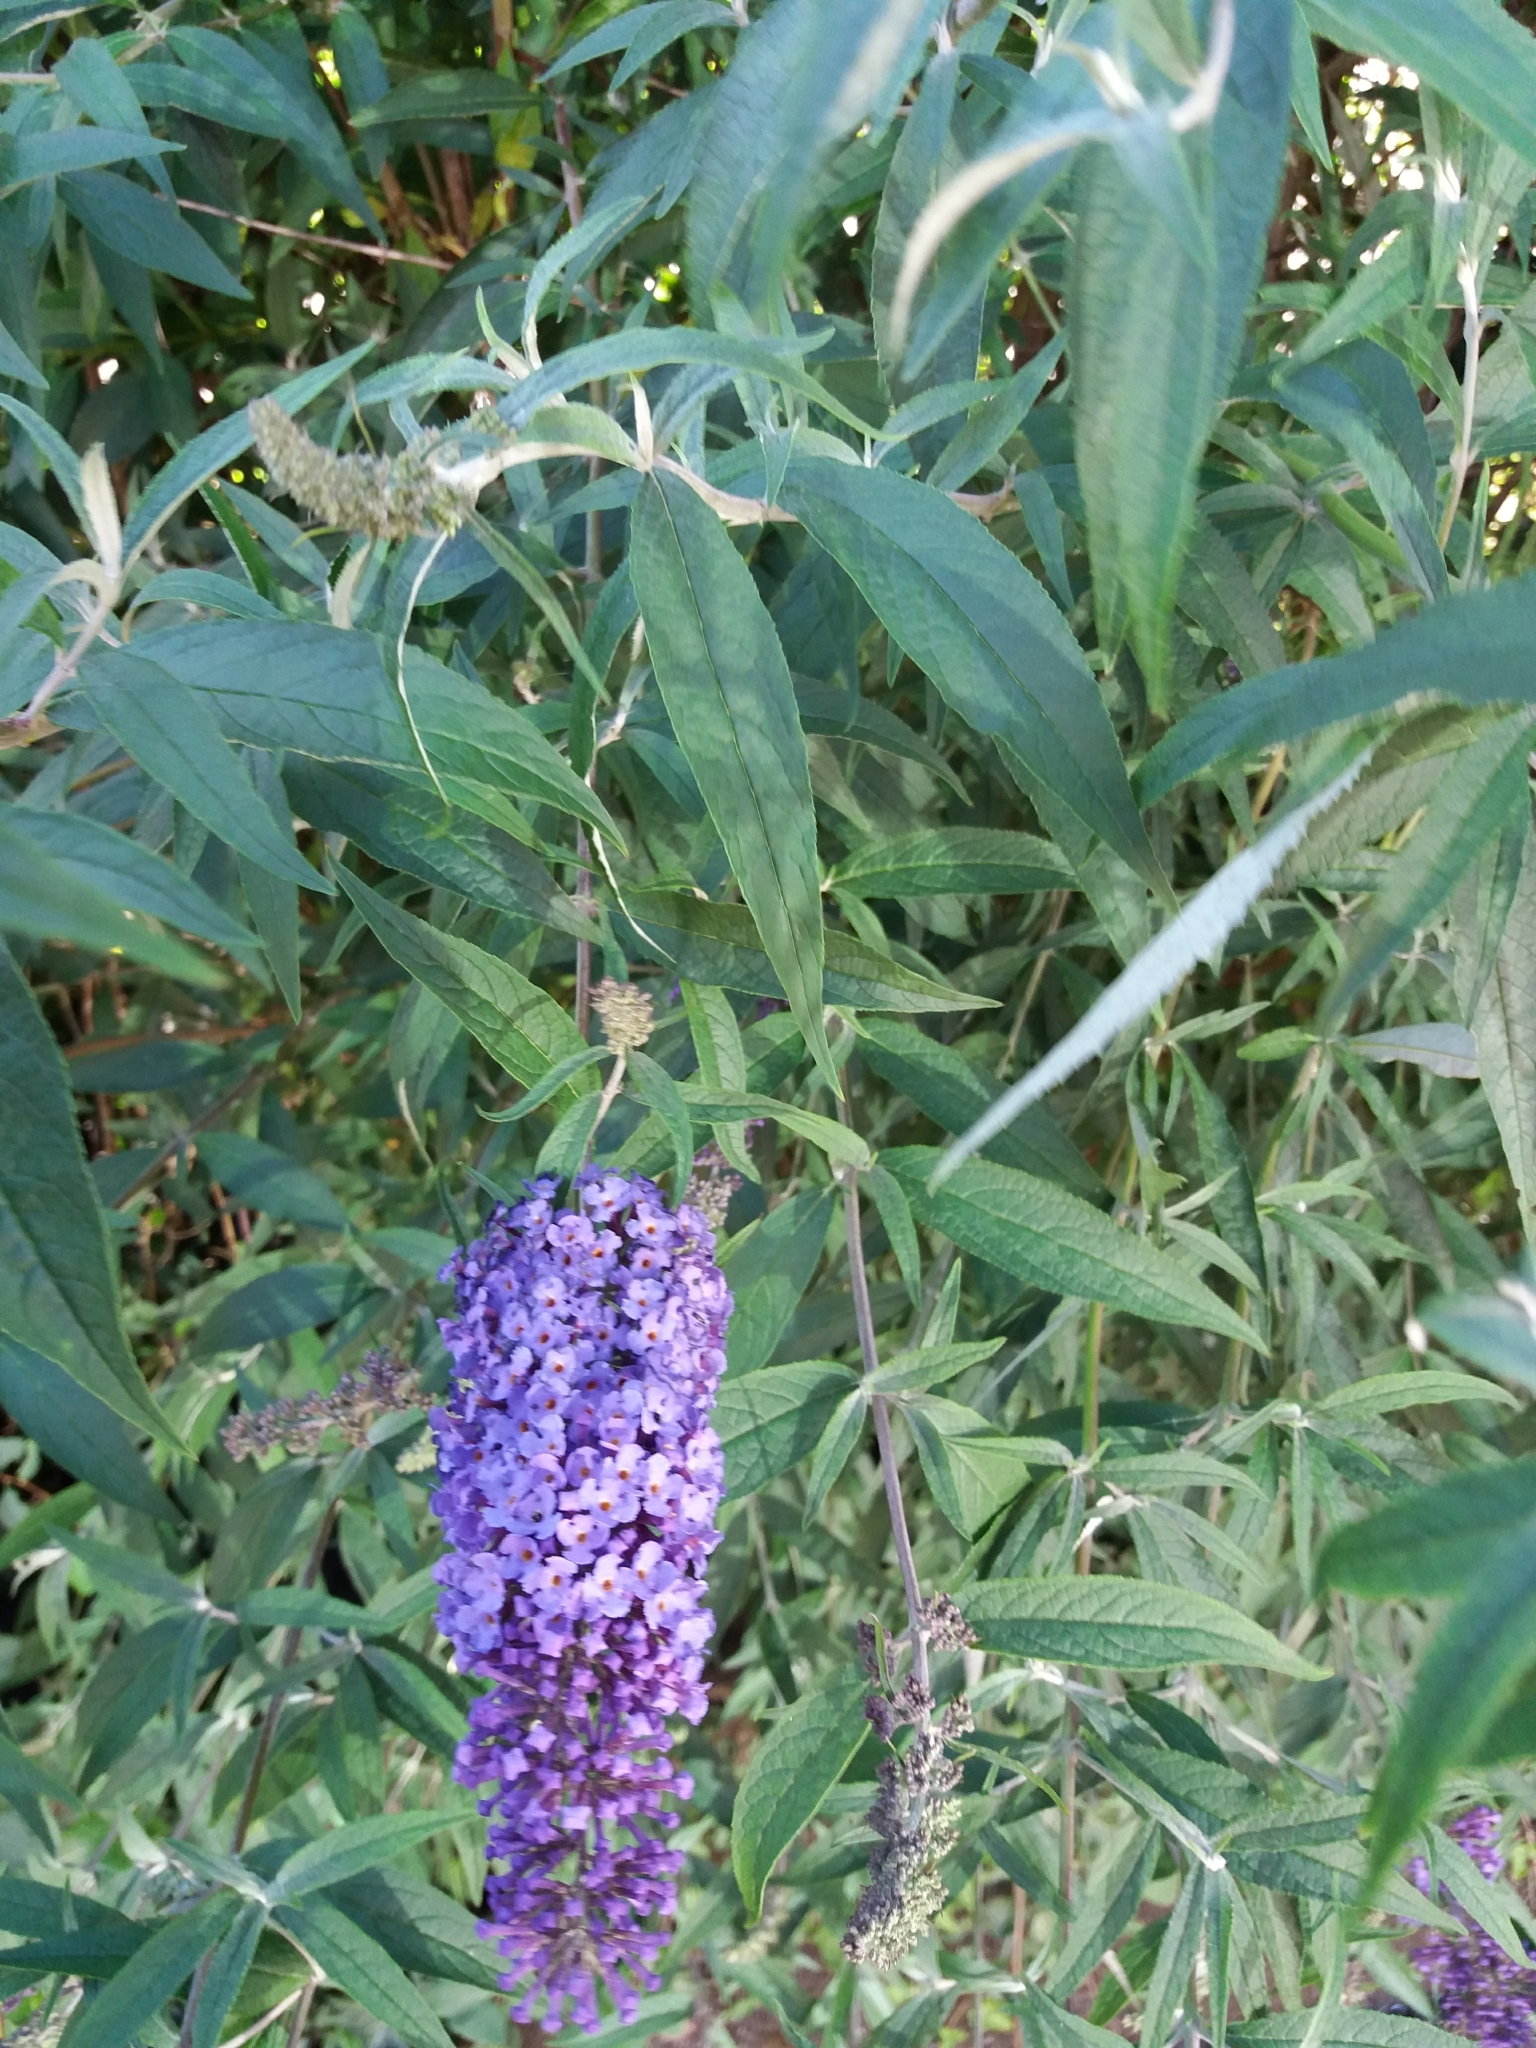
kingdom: Plantae
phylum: Tracheophyta
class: Magnoliopsida
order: Lamiales
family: Scrophulariaceae
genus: Buddleja
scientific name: Buddleja davidii
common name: Butterfly-bush
